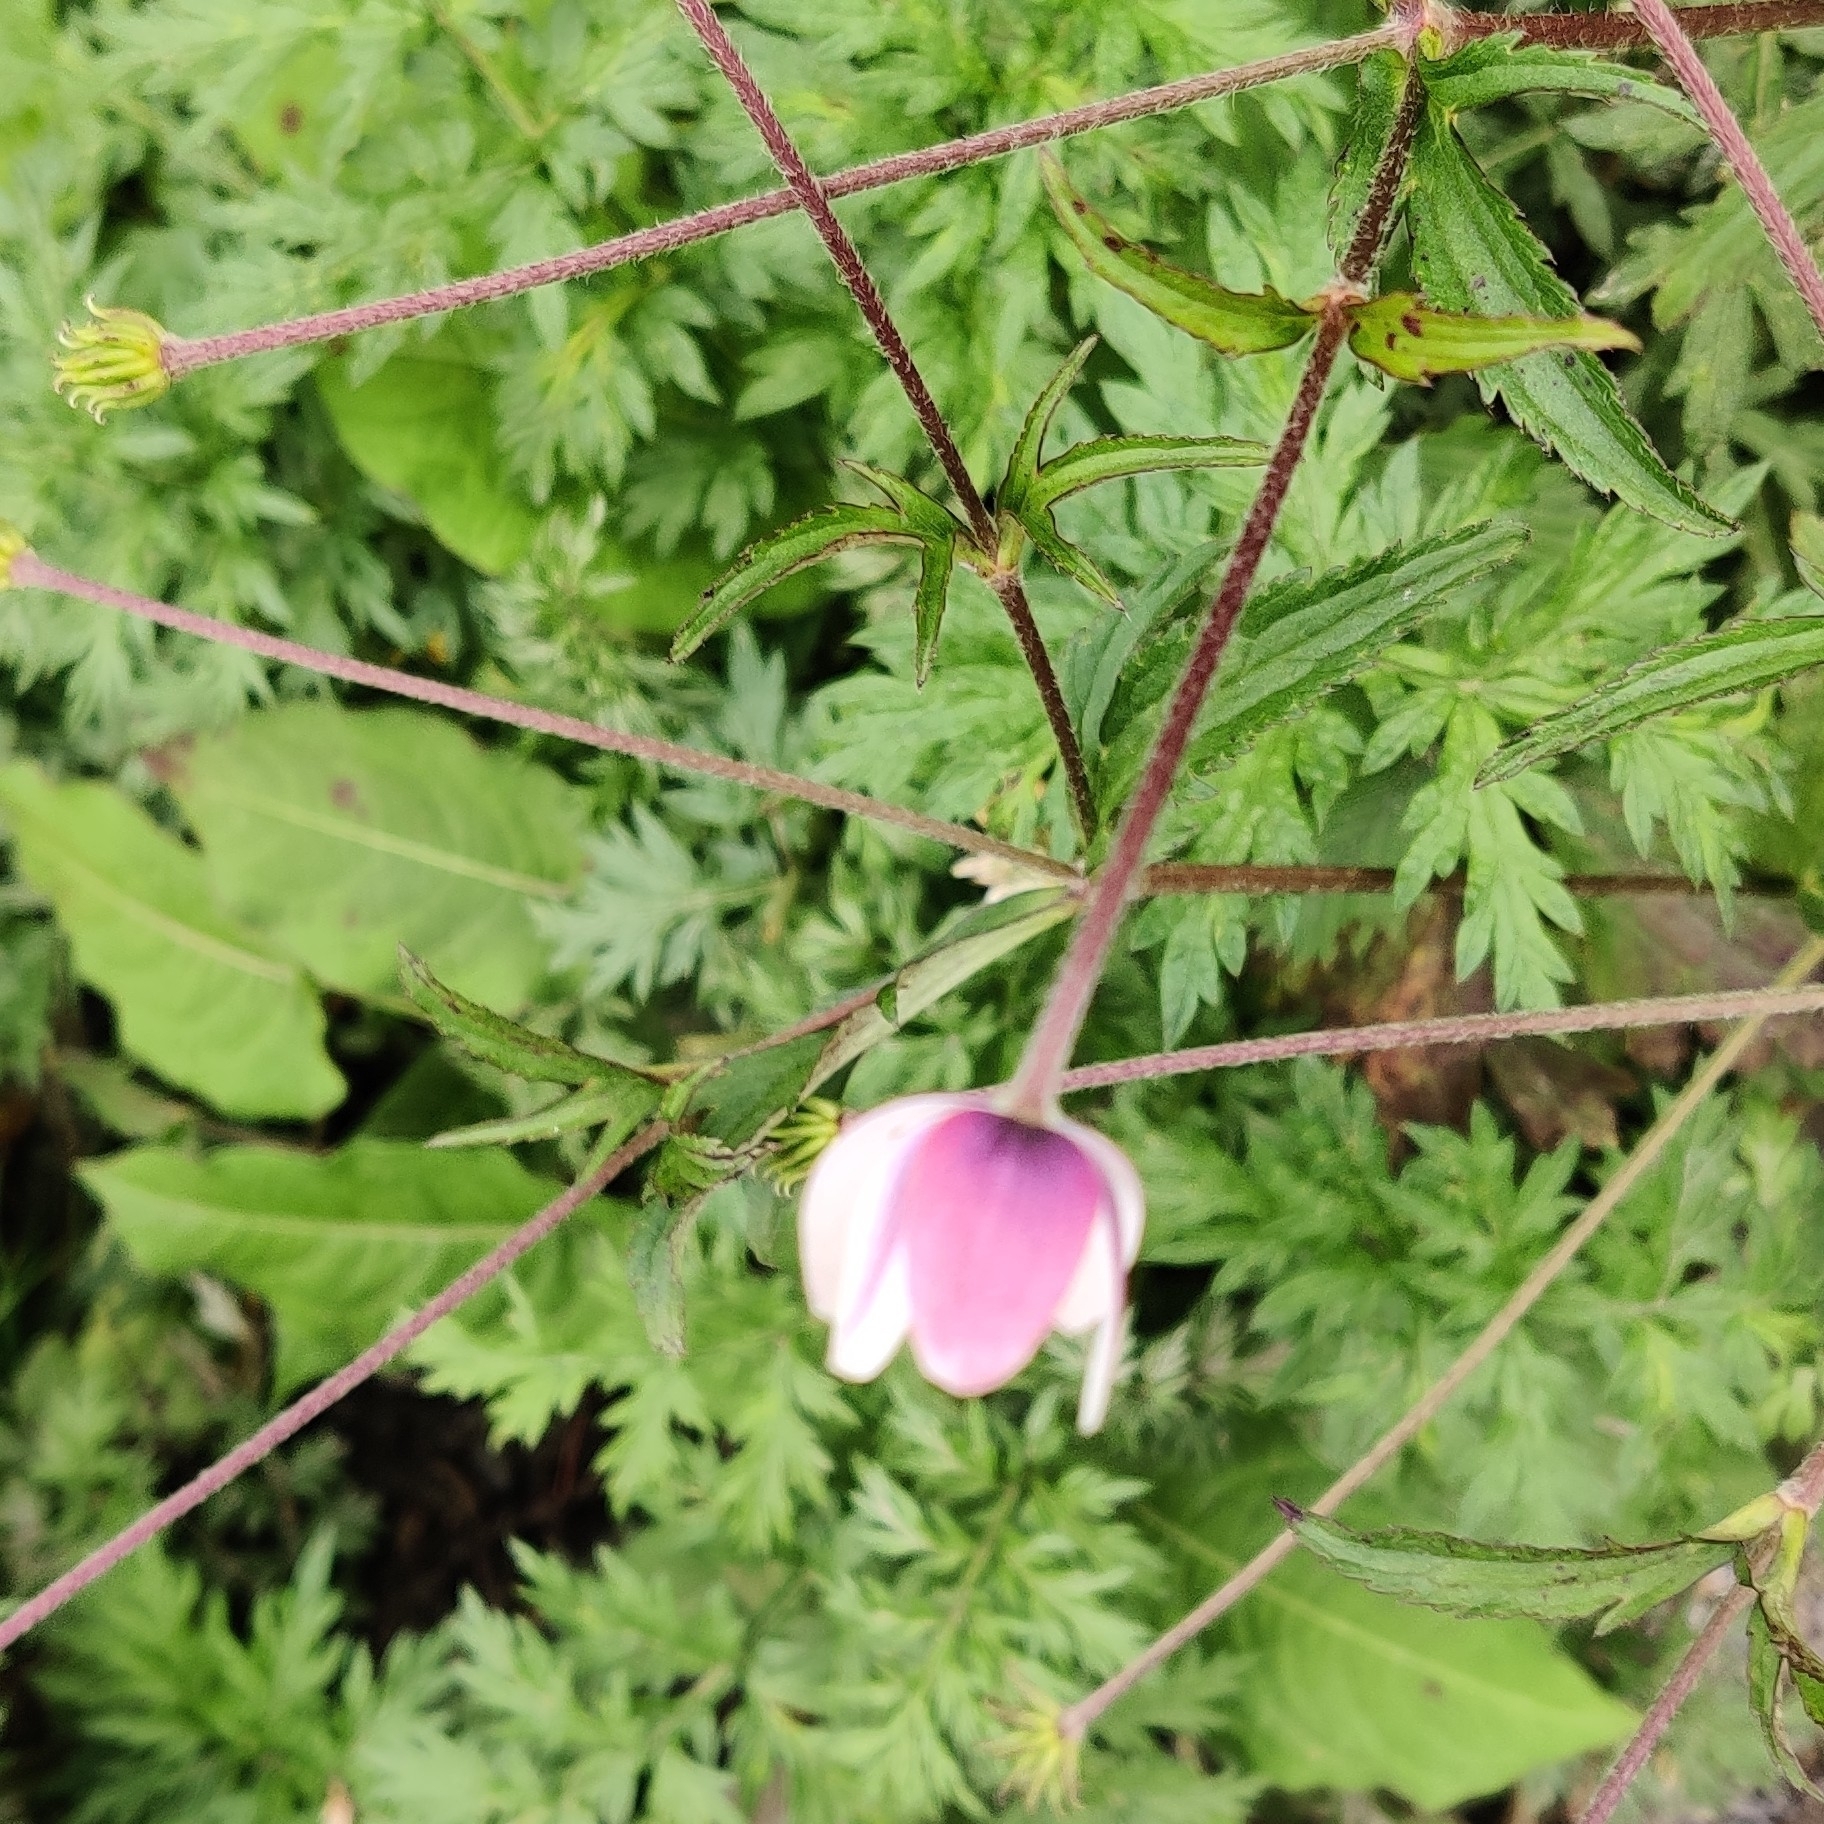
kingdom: Plantae
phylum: Tracheophyta
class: Magnoliopsida
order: Ranunculales
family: Ranunculaceae
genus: Eriocapitella
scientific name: Eriocapitella rivularis
